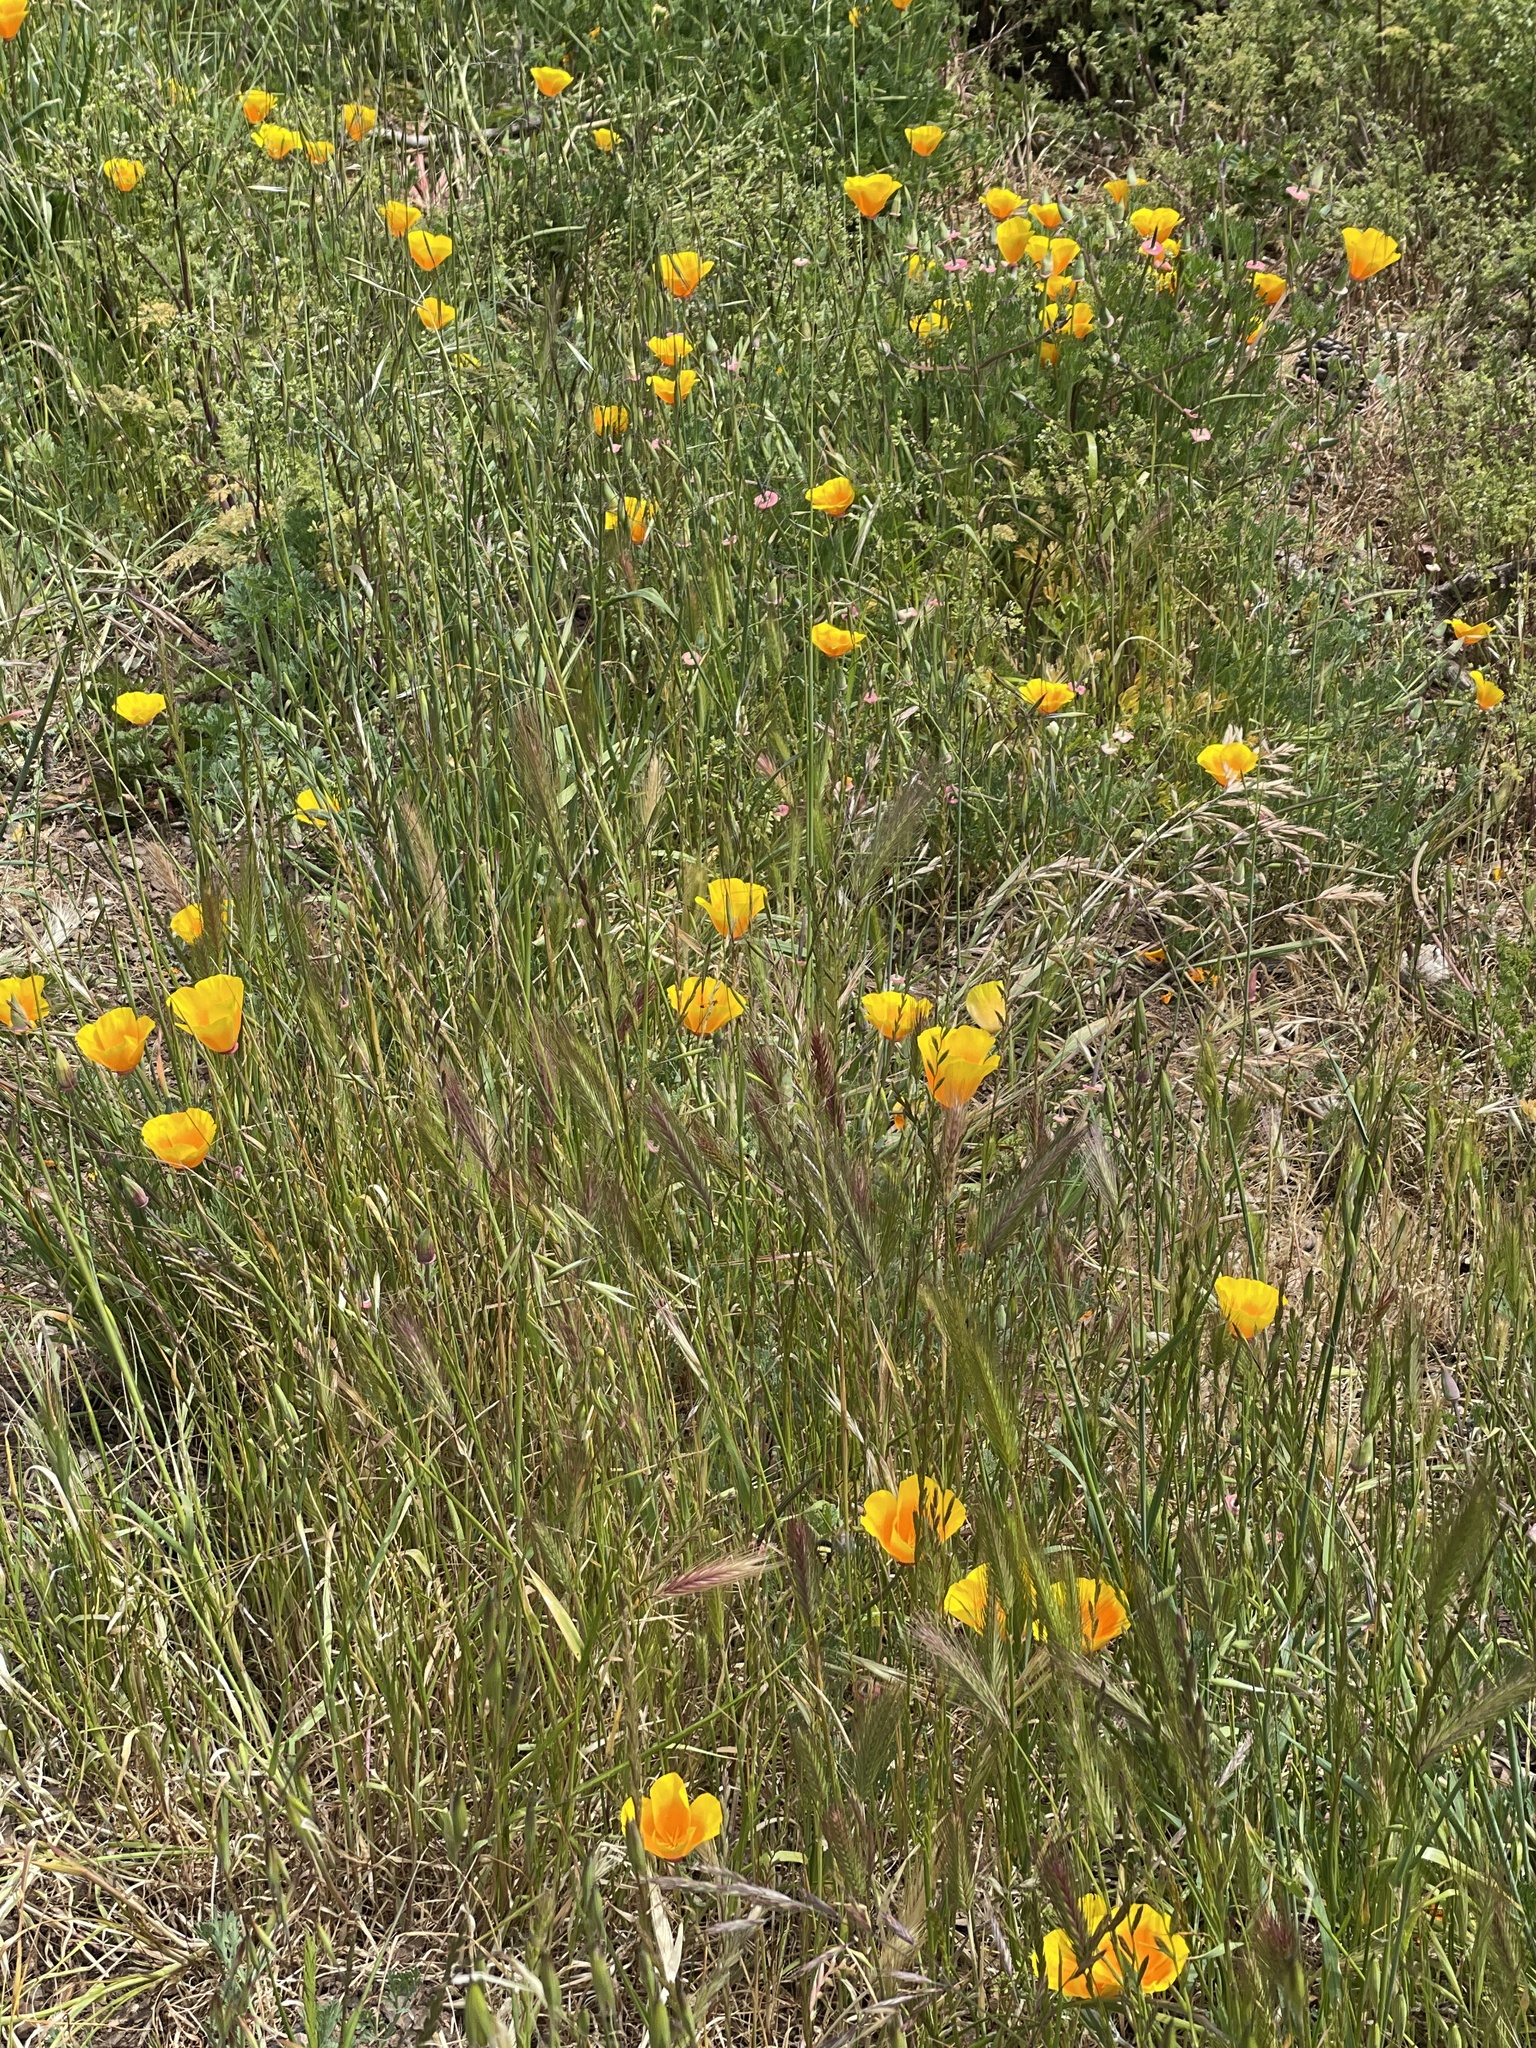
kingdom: Plantae
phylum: Tracheophyta
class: Magnoliopsida
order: Ranunculales
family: Papaveraceae
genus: Eschscholzia
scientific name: Eschscholzia californica
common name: California poppy
